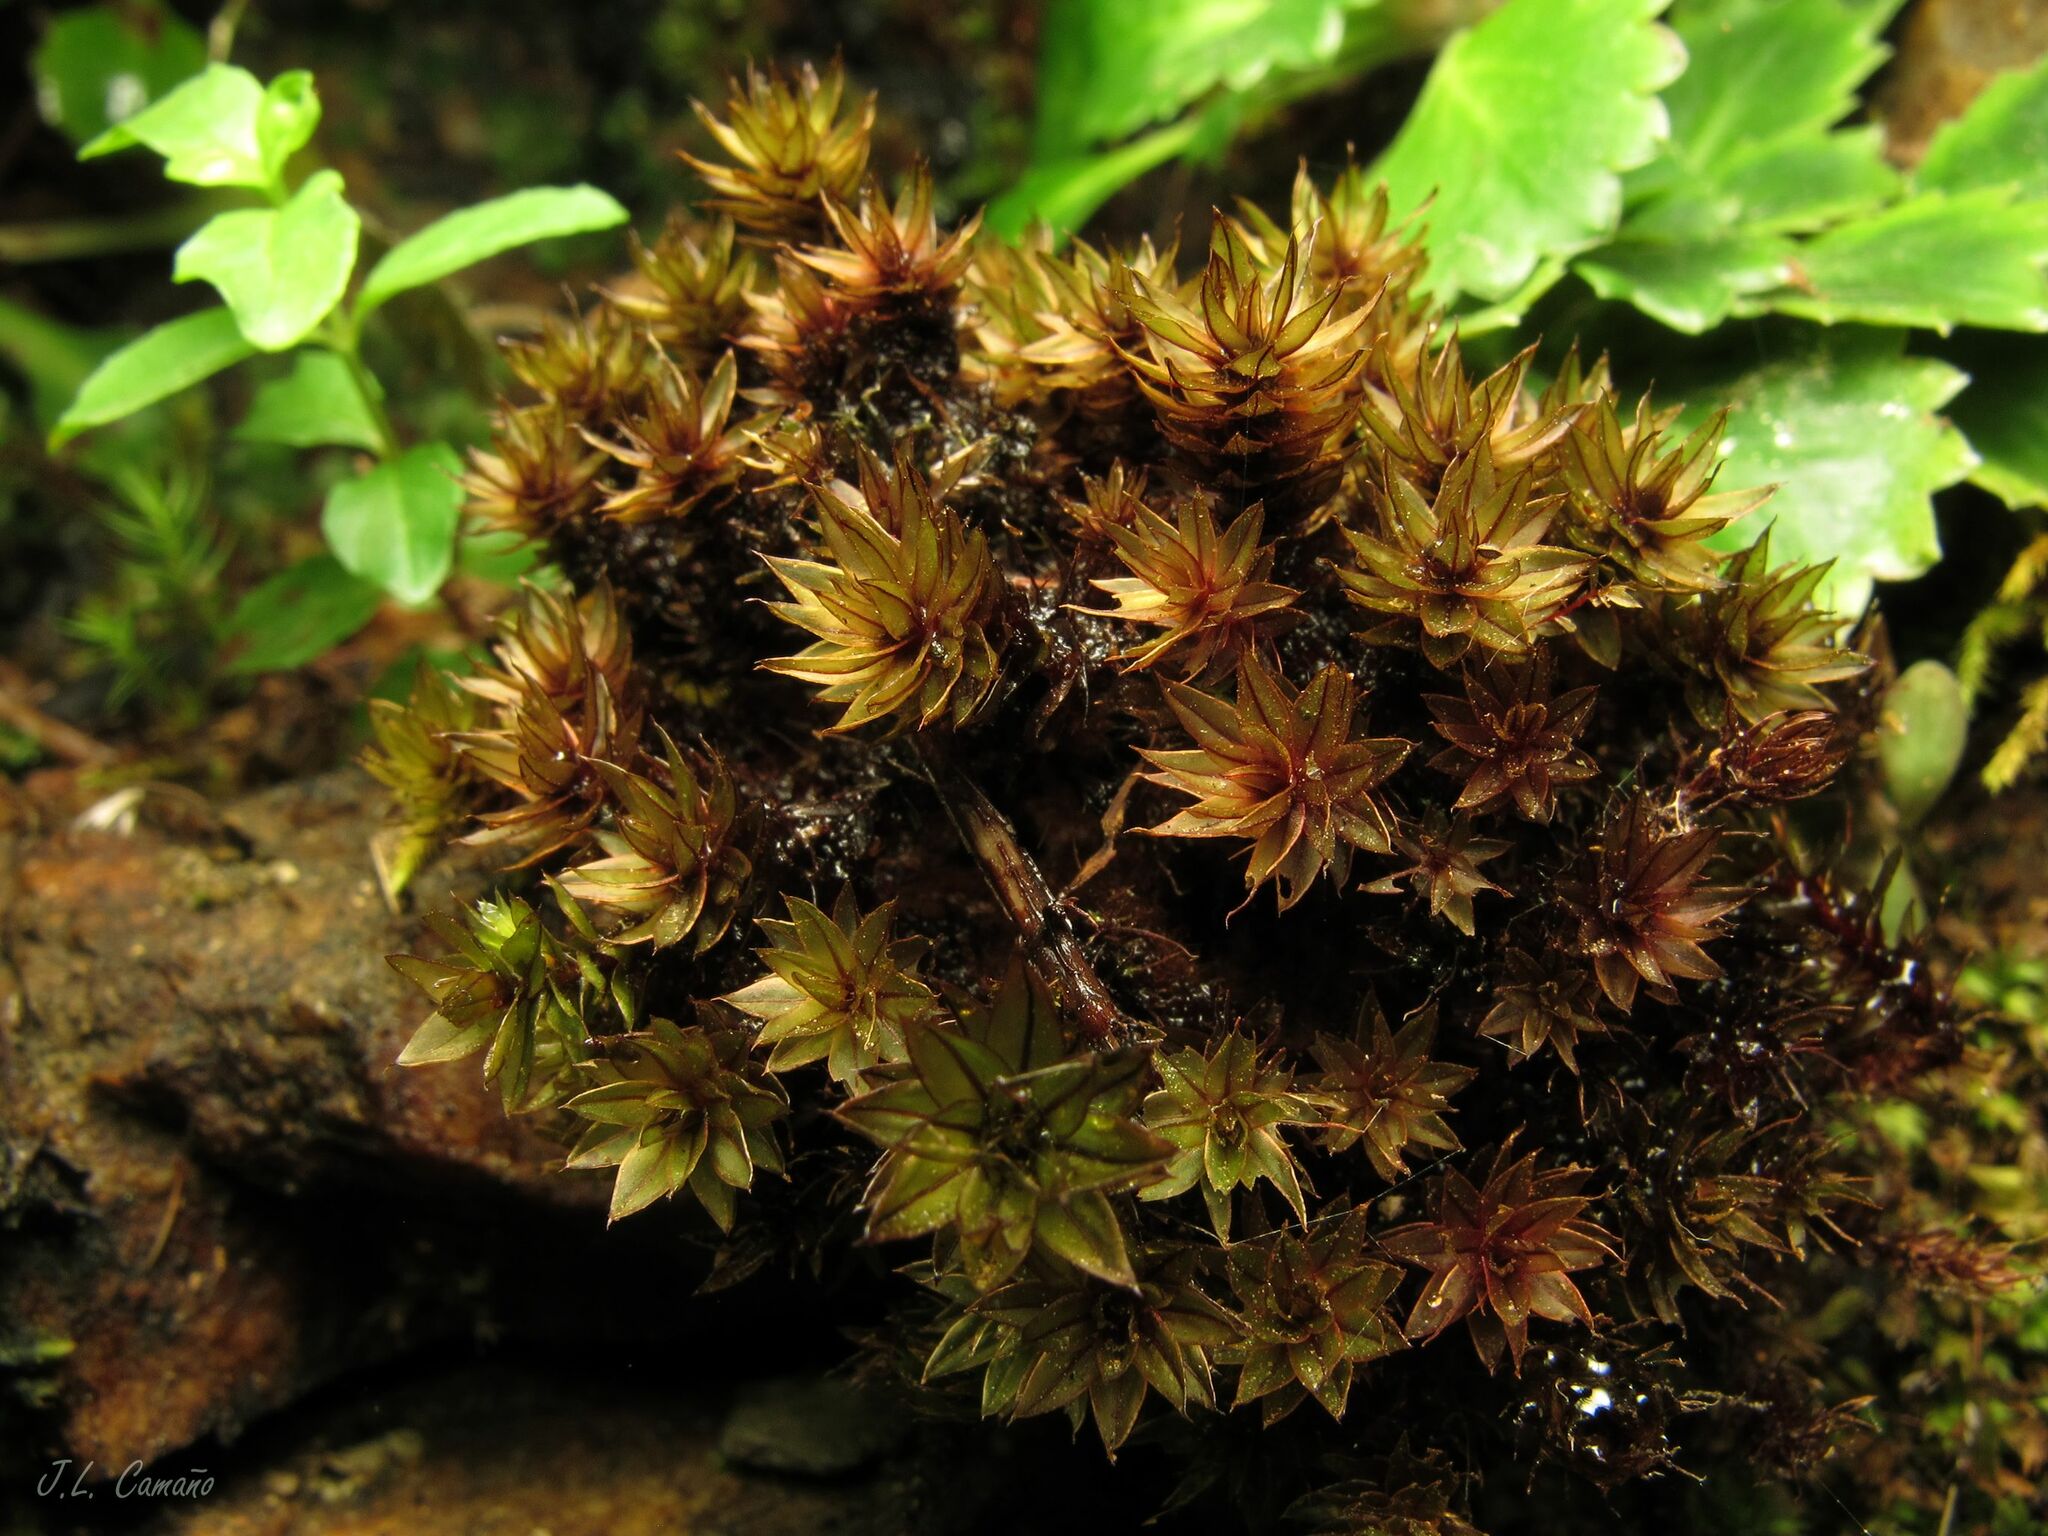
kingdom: Plantae
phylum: Bryophyta
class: Bryopsida
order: Bryales
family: Bryaceae
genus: Ptychostomum
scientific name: Ptychostomum pseudotriquetrum
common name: Long-leaved thread moss
